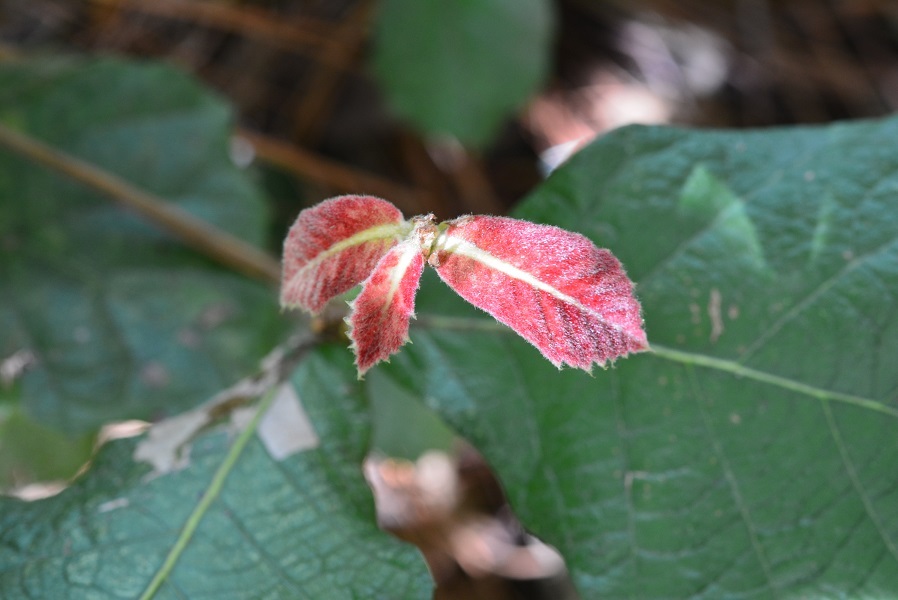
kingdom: Plantae
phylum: Tracheophyta
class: Magnoliopsida
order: Fagales
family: Fagaceae
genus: Quercus
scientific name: Quercus crassifolia
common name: Leather leaf mexican oak
